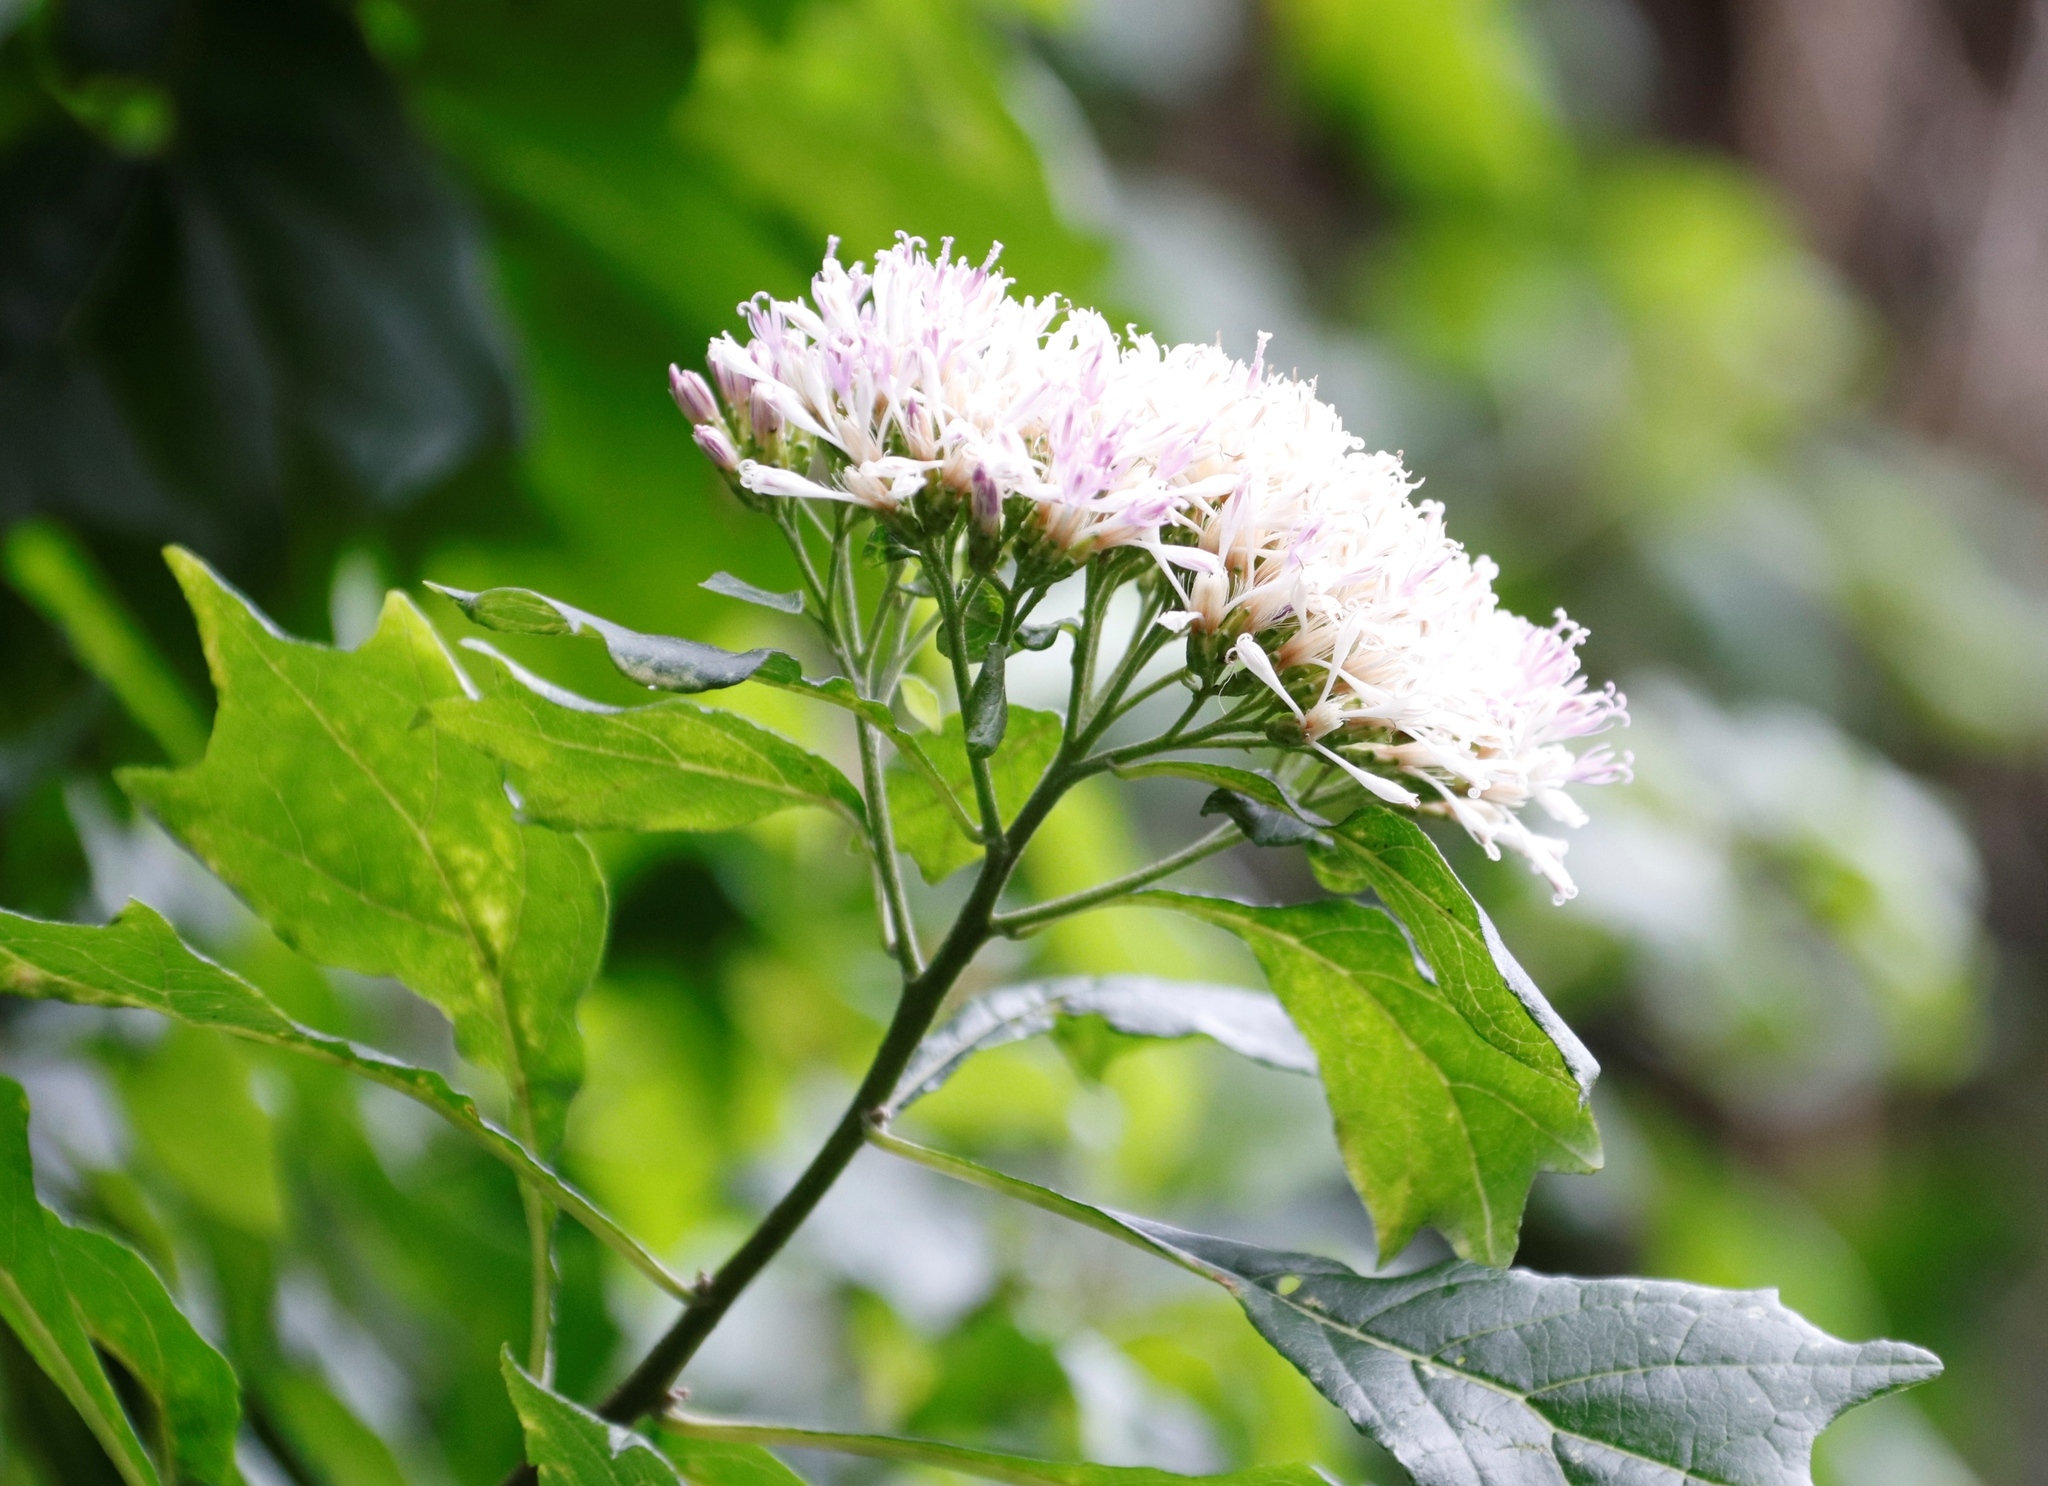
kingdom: Plantae
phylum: Tracheophyta
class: Magnoliopsida
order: Asterales
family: Asteraceae
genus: Gymnanthemum
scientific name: Gymnanthemum capense
